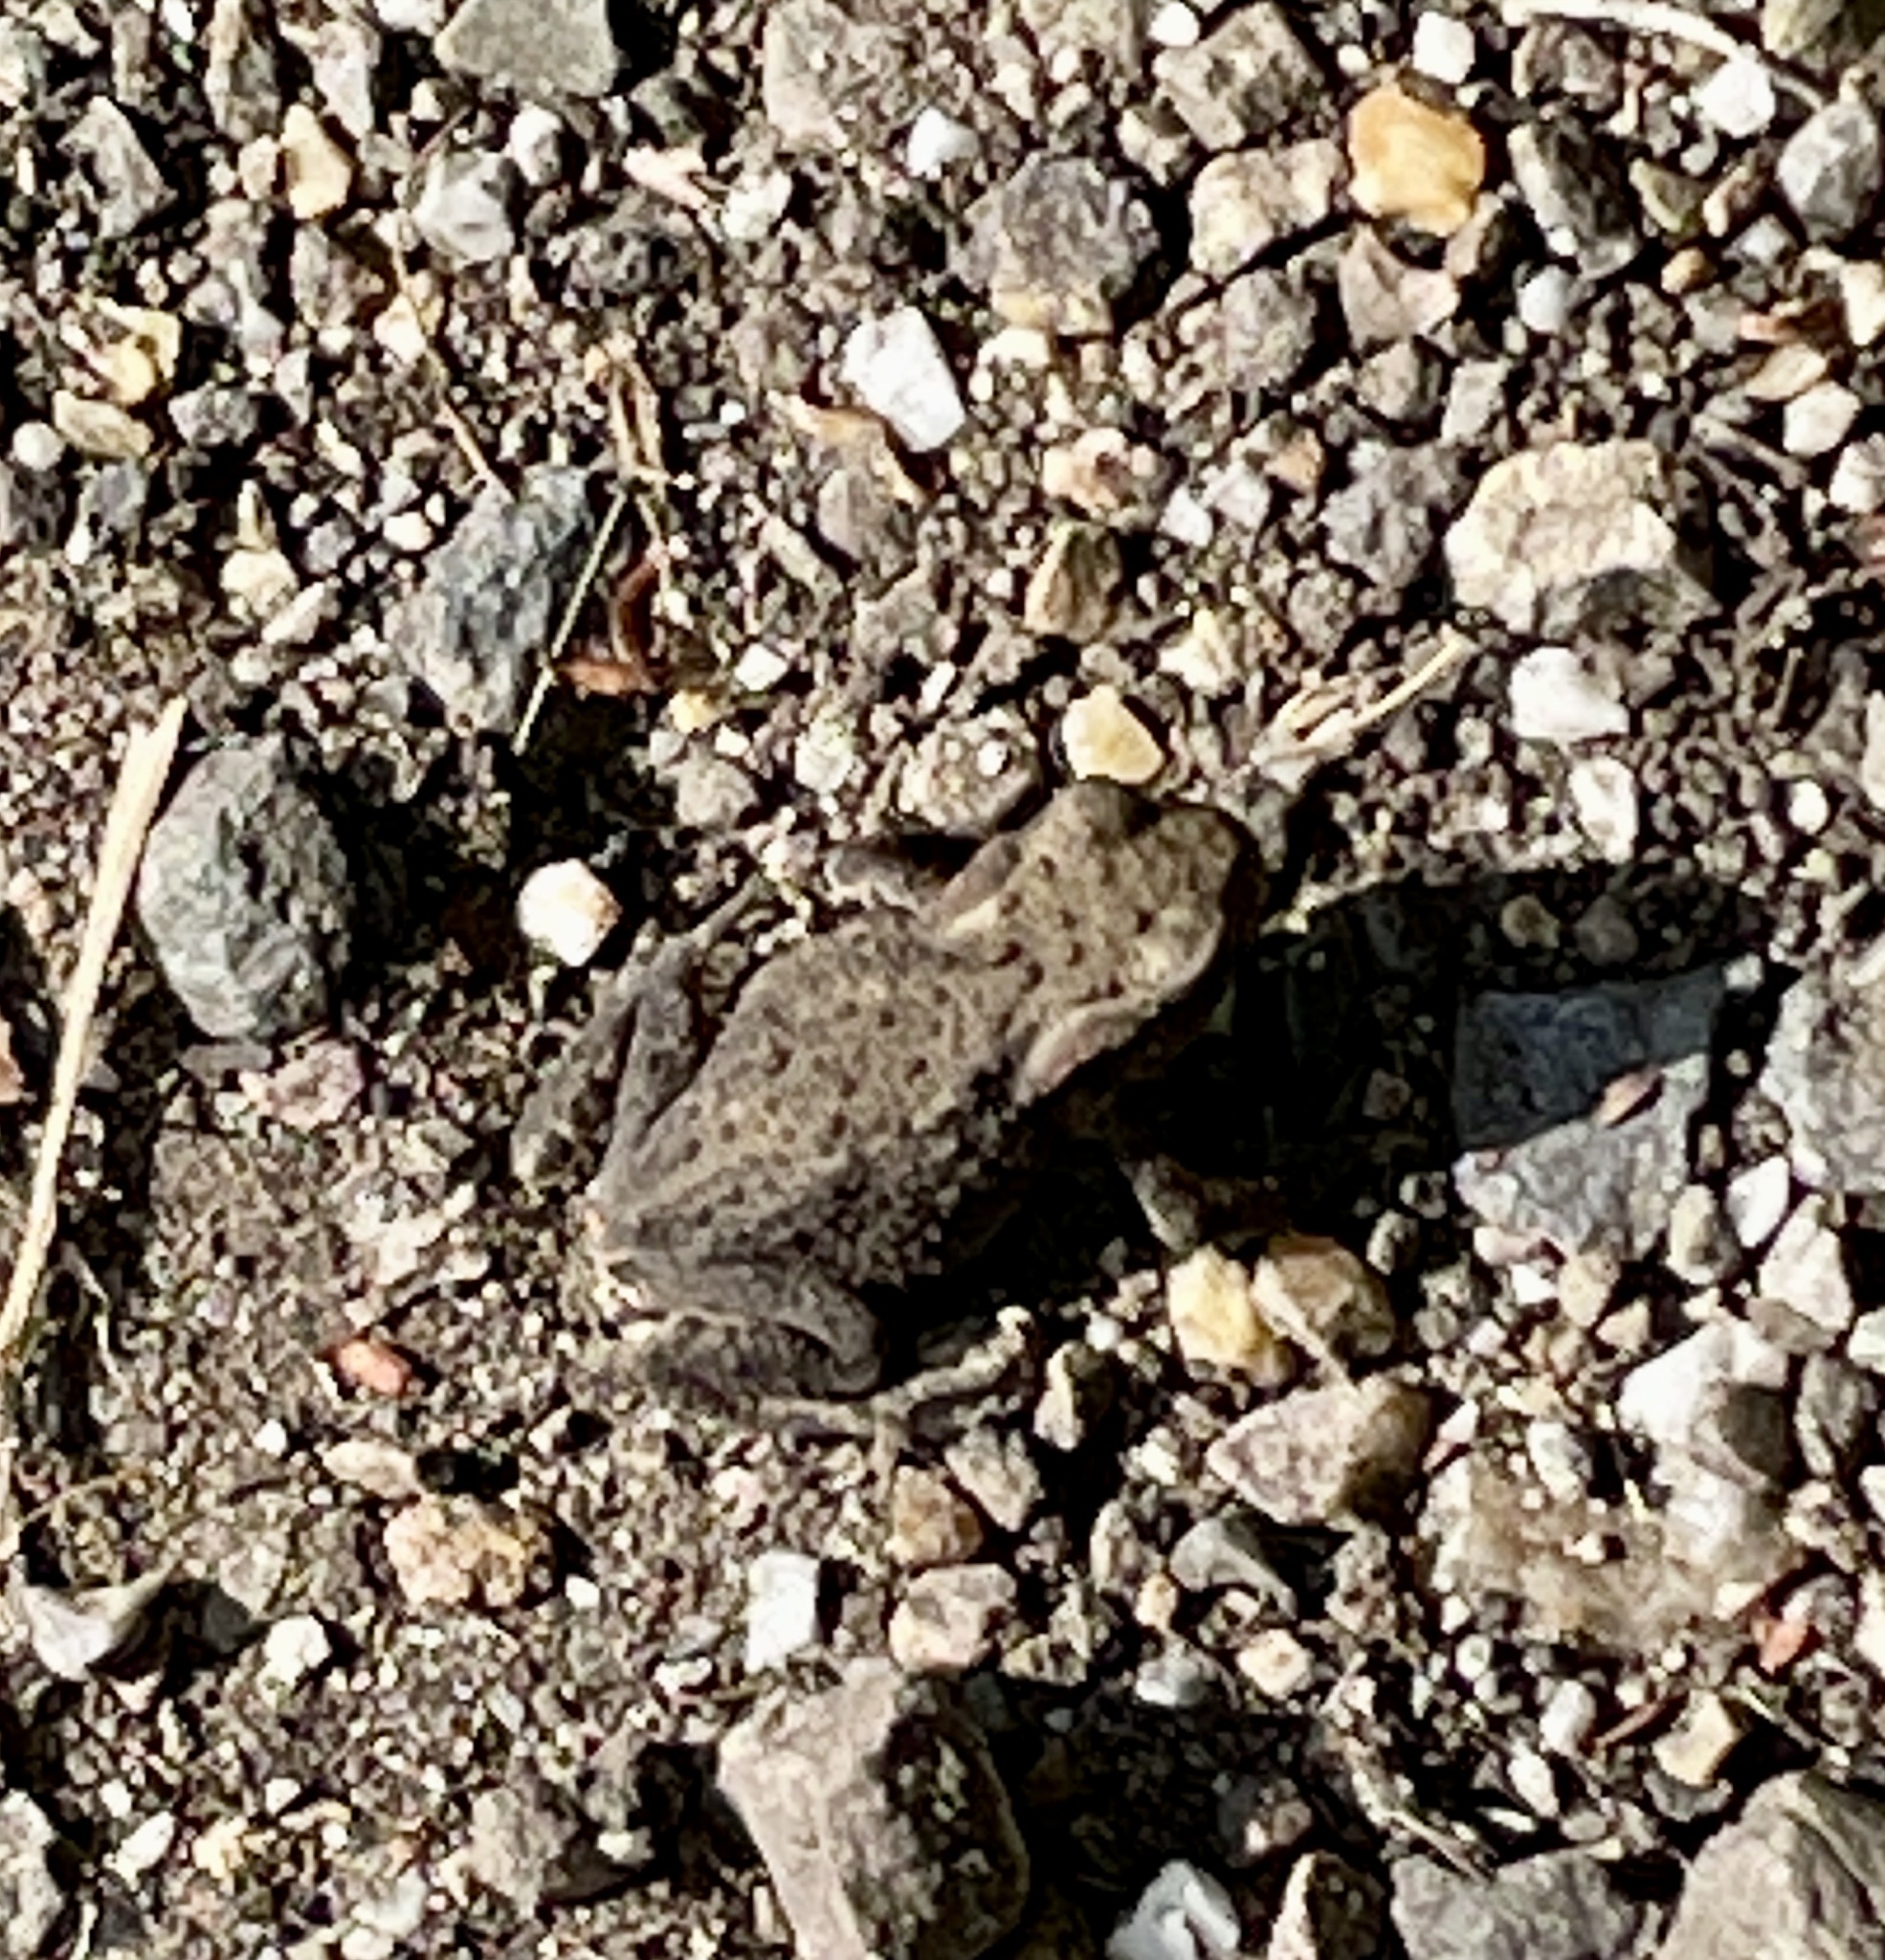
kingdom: Animalia
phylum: Chordata
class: Amphibia
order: Anura
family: Bufonidae
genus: Bufo
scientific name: Bufo bufo
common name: Common toad
